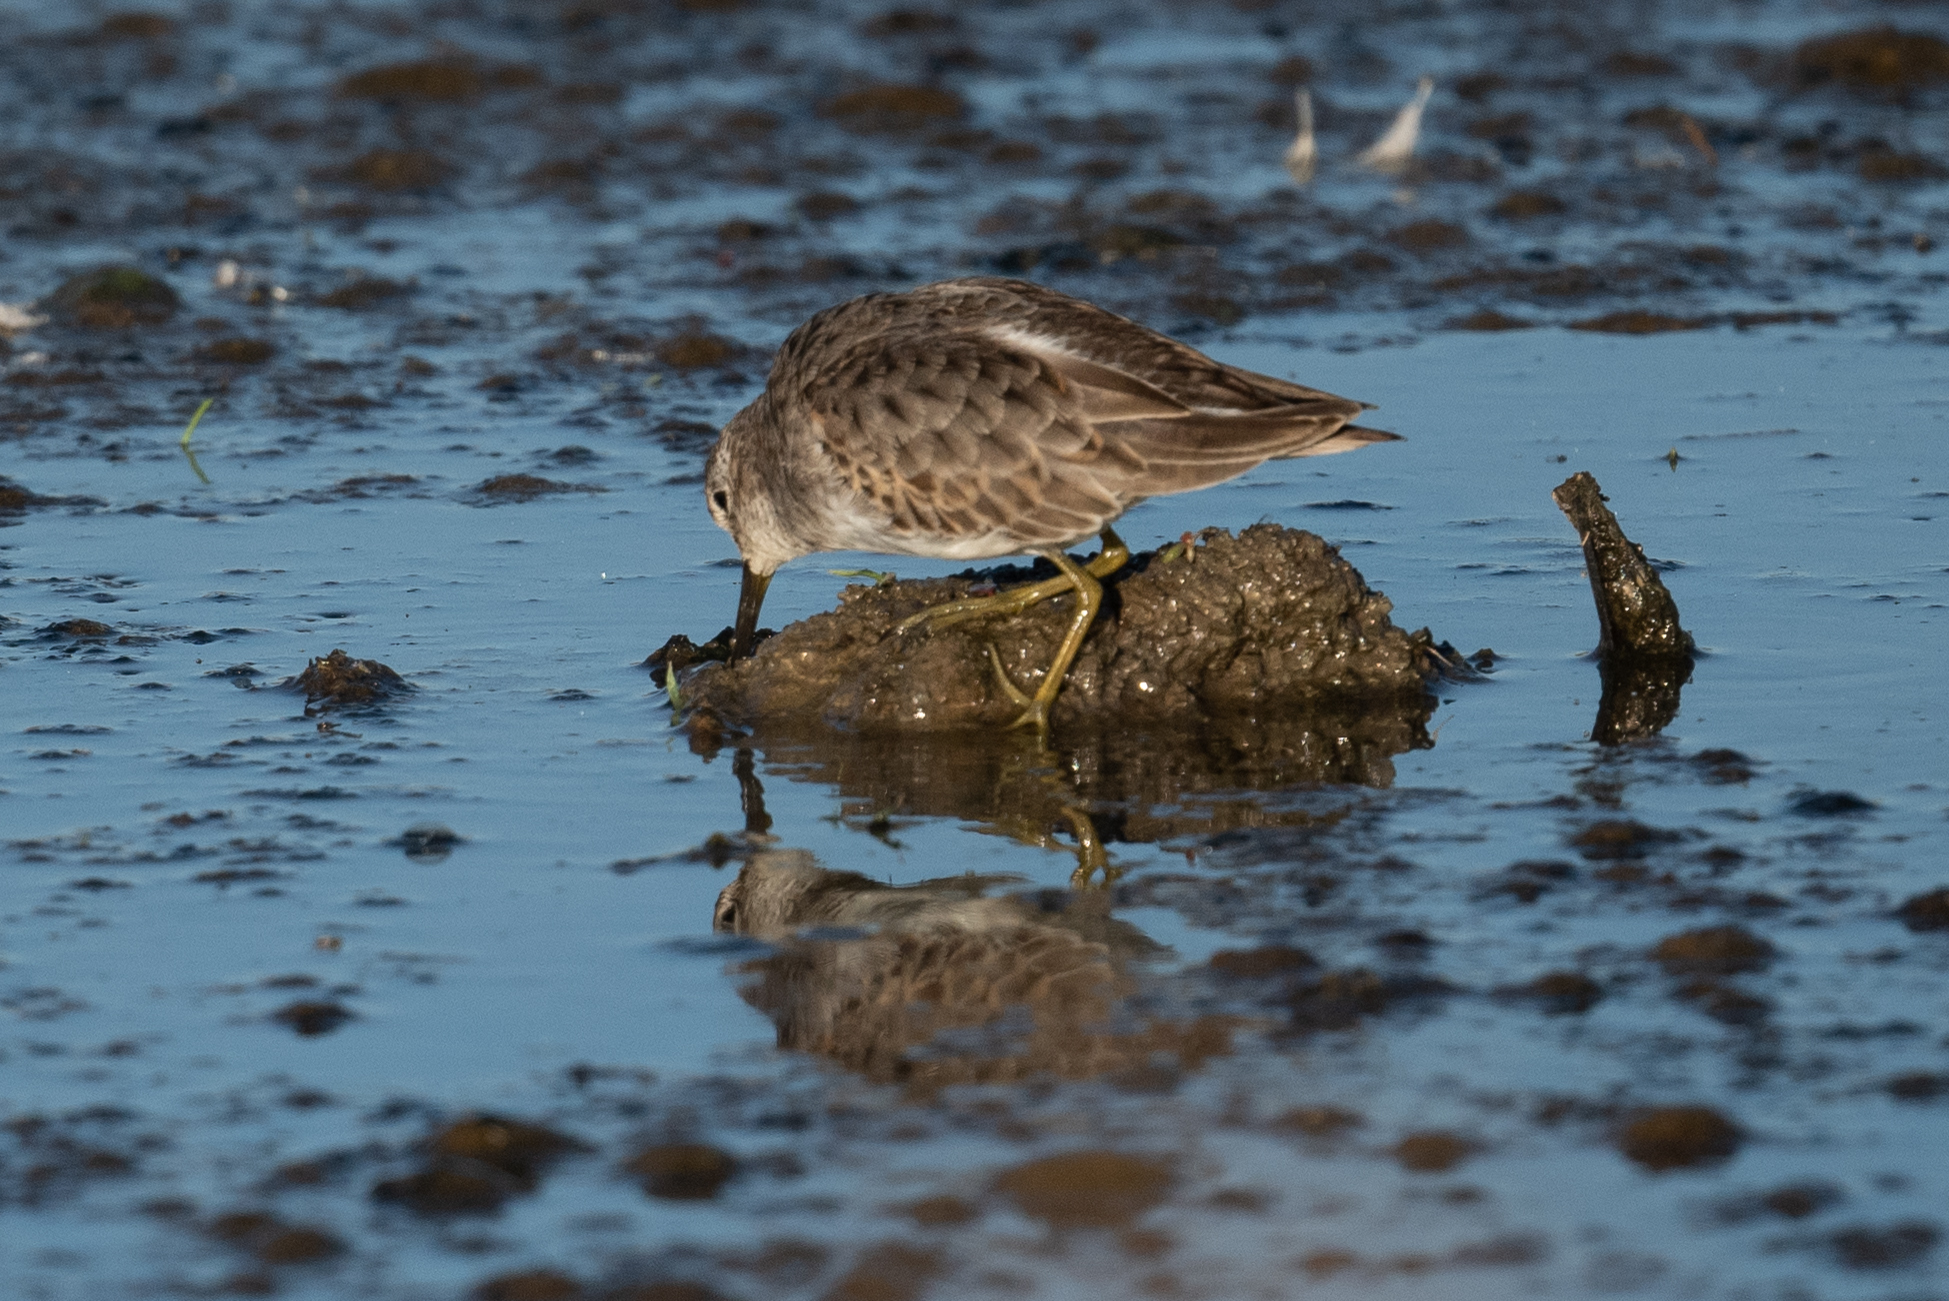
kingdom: Animalia
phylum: Chordata
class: Aves
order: Charadriiformes
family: Scolopacidae
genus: Calidris
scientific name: Calidris minutilla
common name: Least sandpiper
